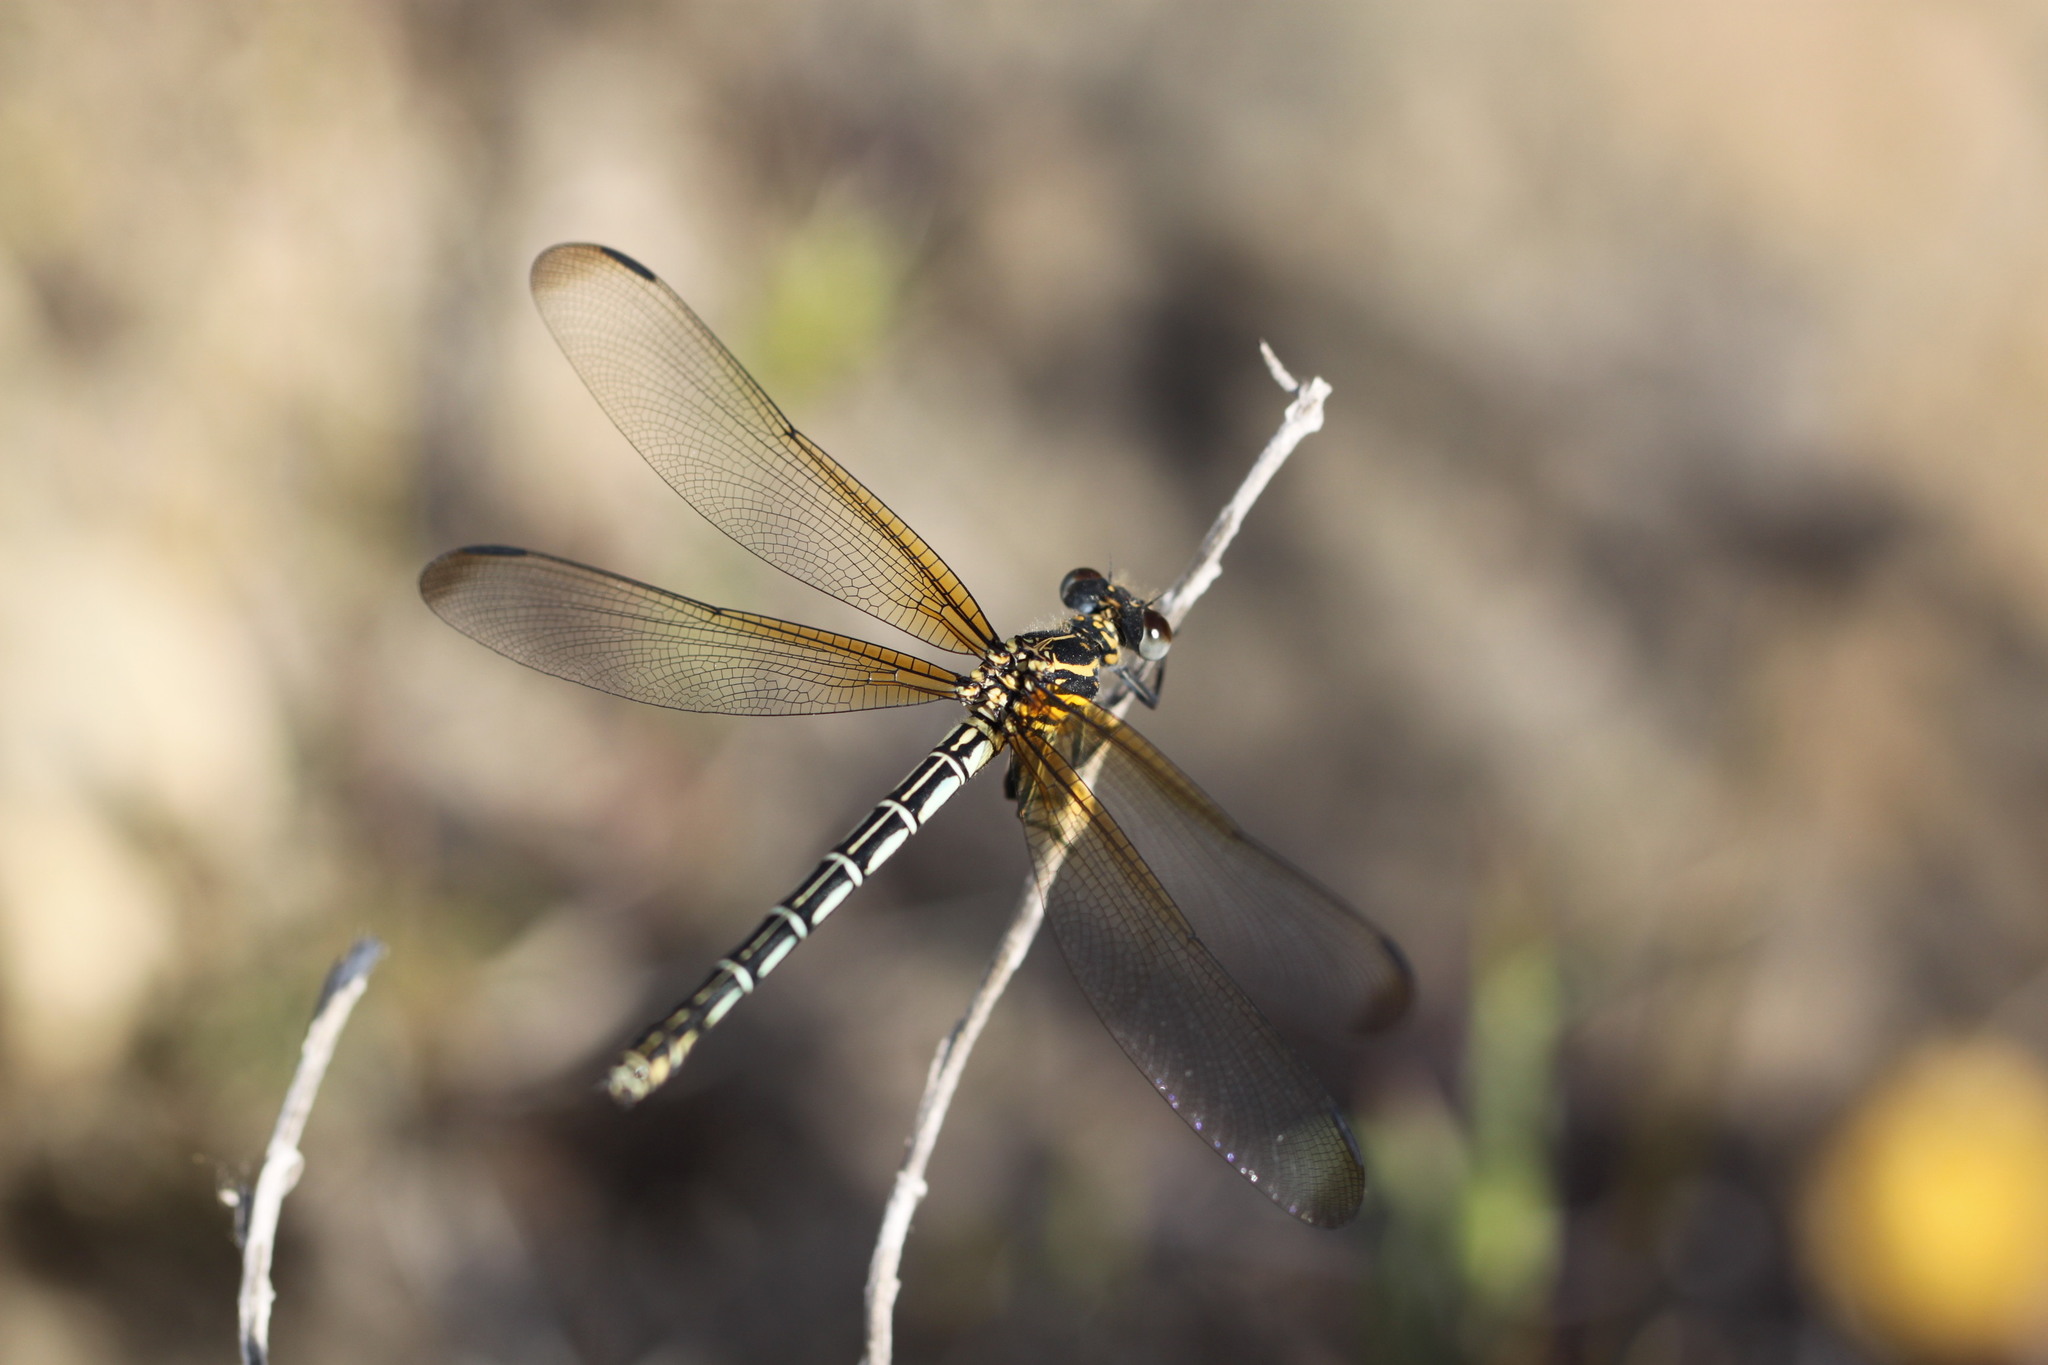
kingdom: Animalia
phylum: Arthropoda
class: Insecta
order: Odonata
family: Euphaeidae
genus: Epallage
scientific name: Epallage fatime
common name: Odalisque
